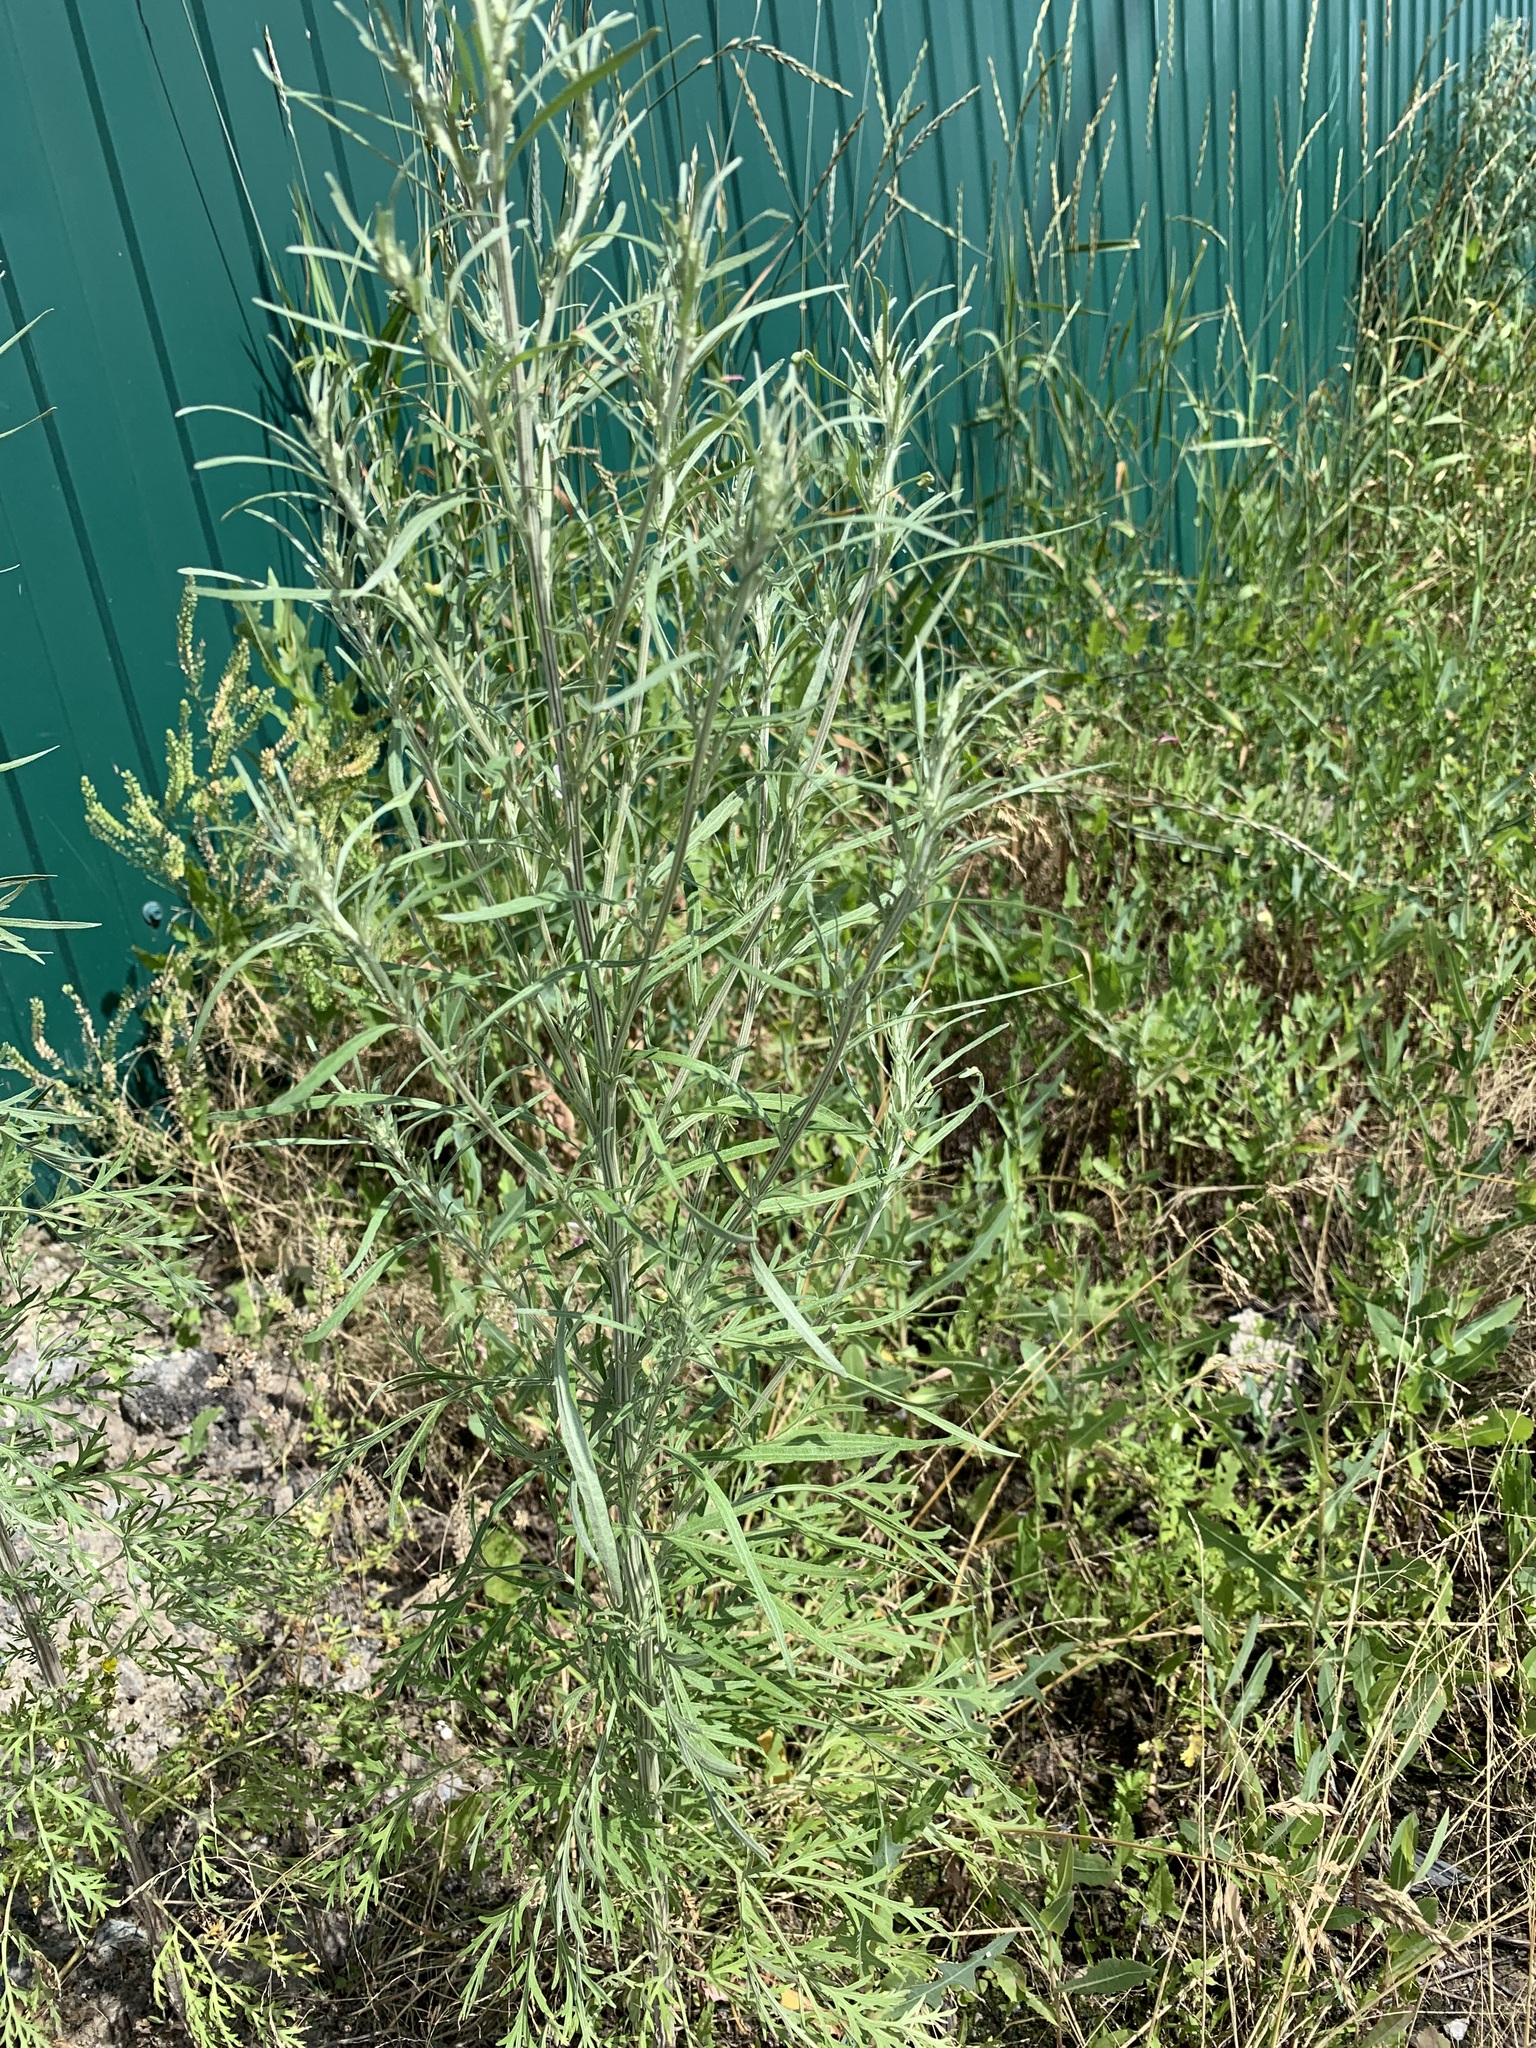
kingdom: Plantae
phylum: Tracheophyta
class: Magnoliopsida
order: Asterales
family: Asteraceae
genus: Artemisia
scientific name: Artemisia sieversiana
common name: Sieversian wormwood
